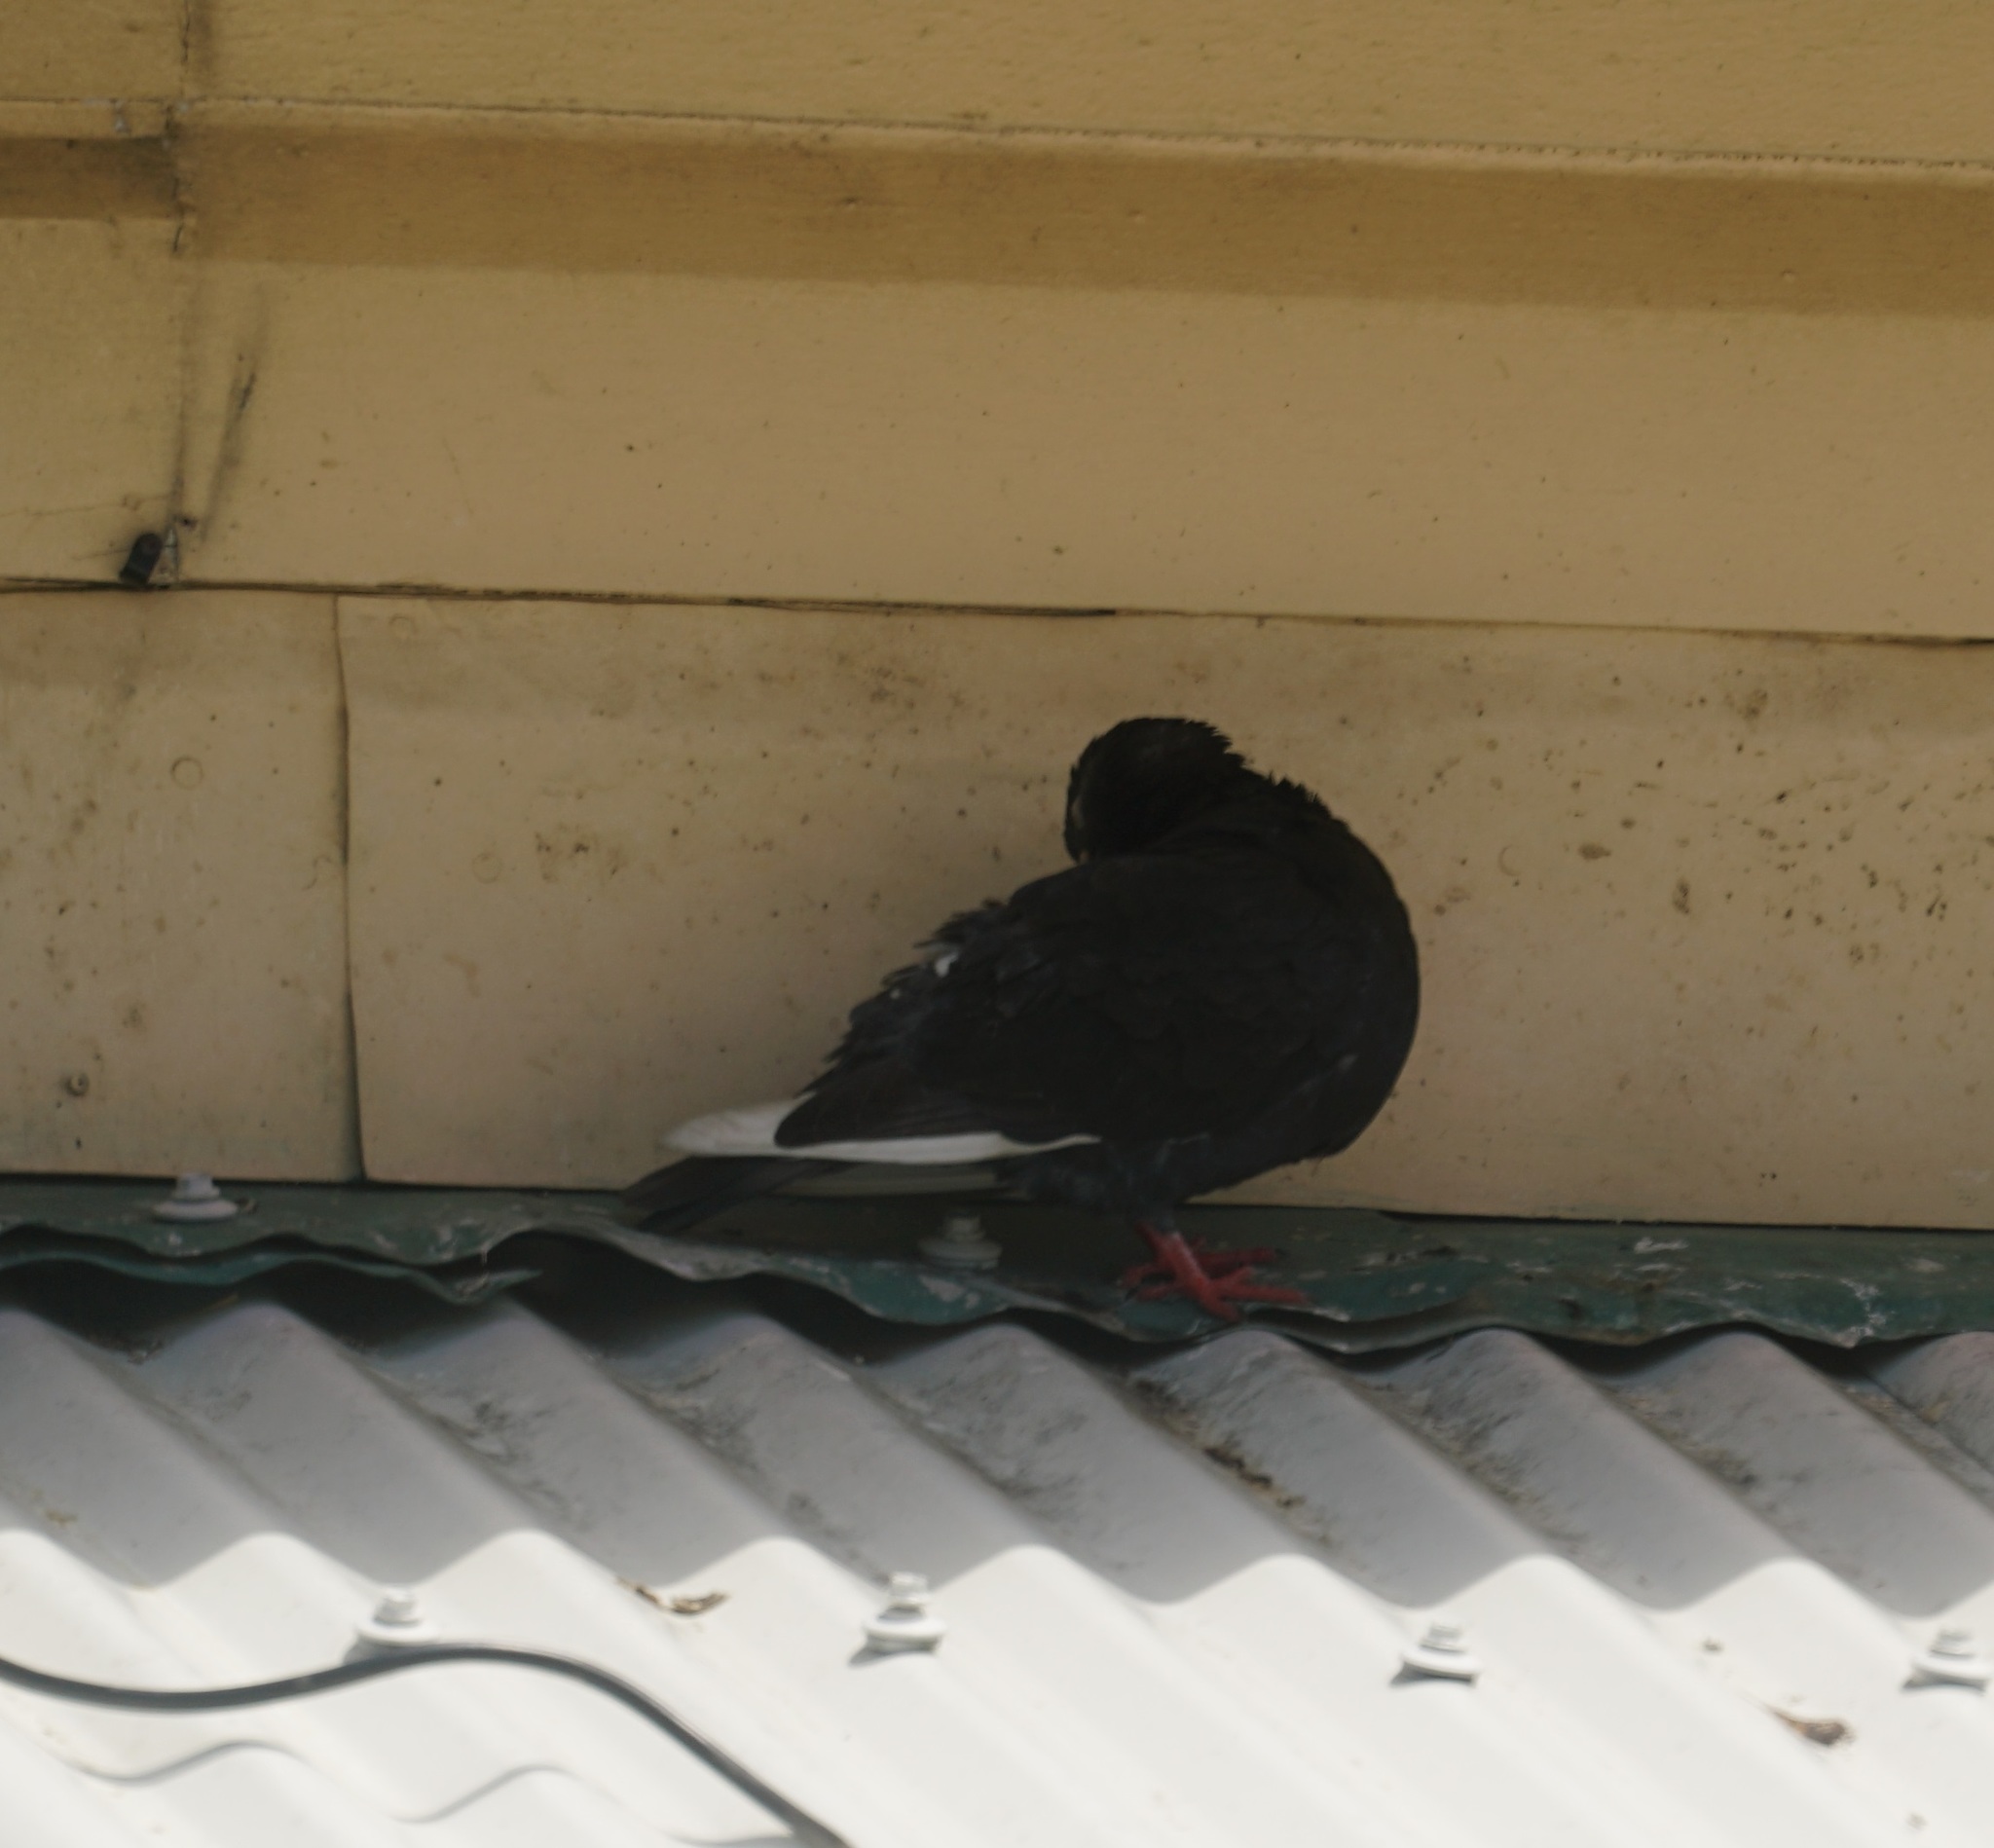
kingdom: Animalia
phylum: Chordata
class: Aves
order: Columbiformes
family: Columbidae
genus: Columba
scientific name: Columba livia
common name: Rock pigeon
